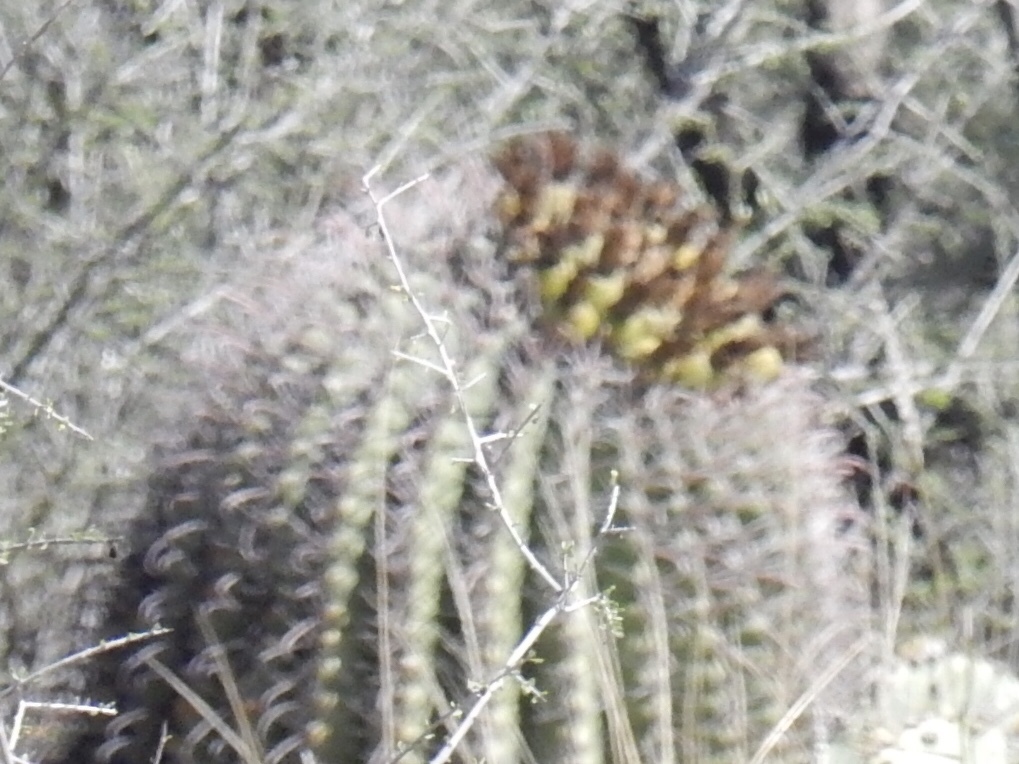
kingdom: Plantae
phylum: Tracheophyta
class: Magnoliopsida
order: Caryophyllales
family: Cactaceae
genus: Ferocactus
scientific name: Ferocactus wislizeni
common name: Candy barrel cactus
